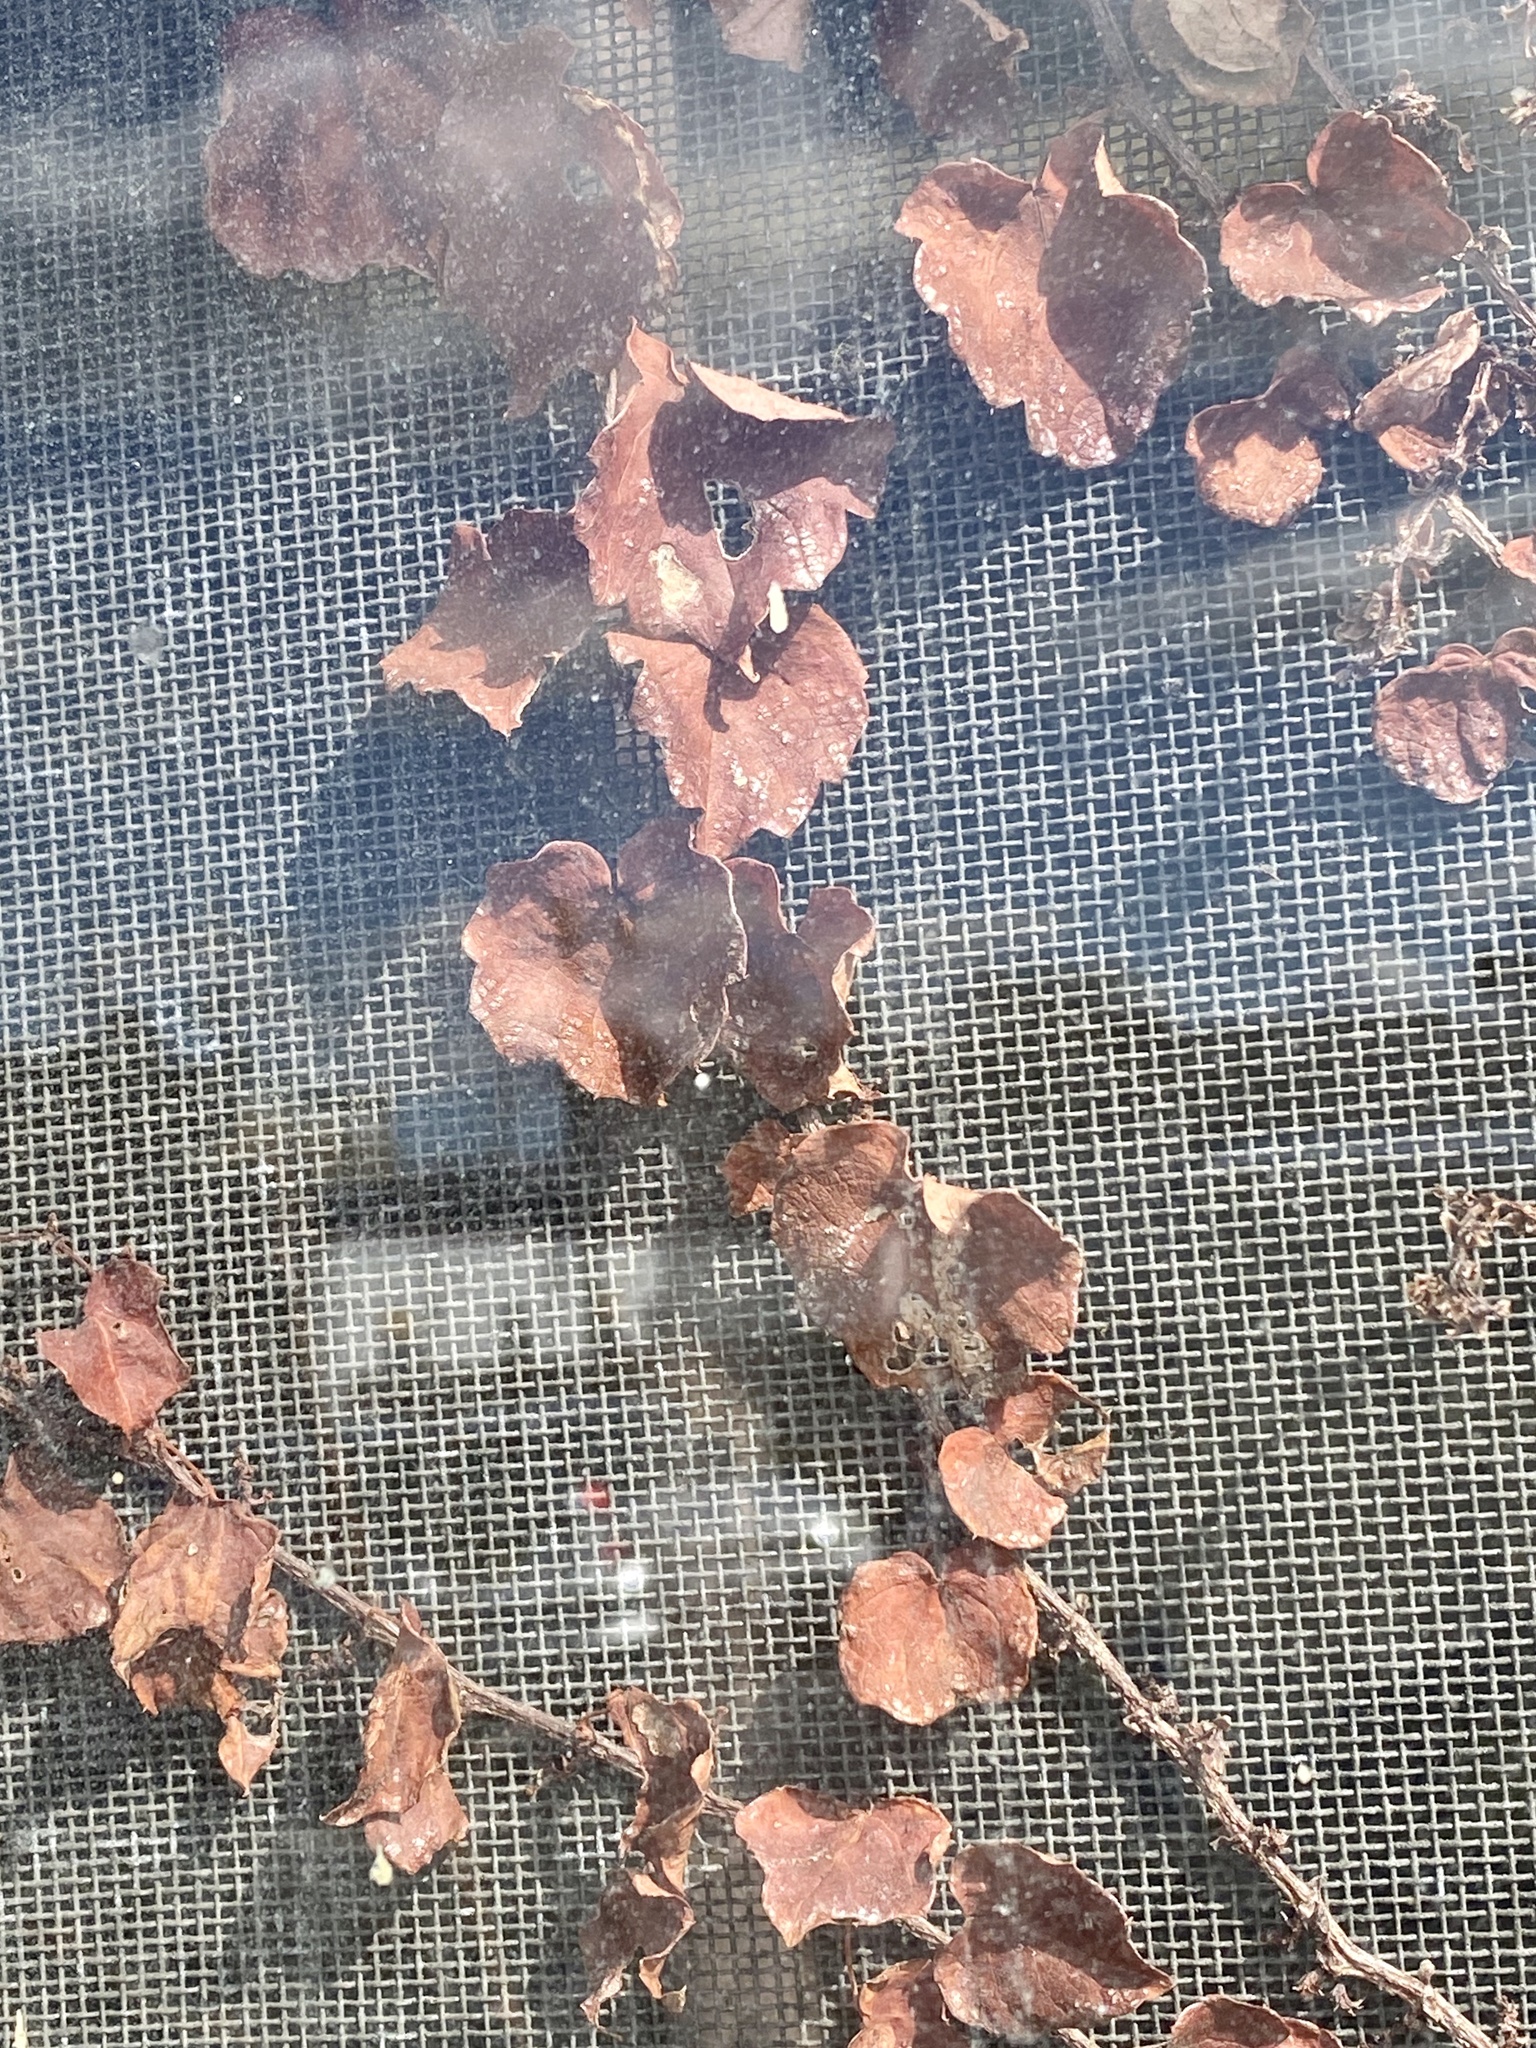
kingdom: Plantae
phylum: Tracheophyta
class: Magnoliopsida
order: Vitales
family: Vitaceae
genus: Parthenocissus
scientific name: Parthenocissus tricuspidata
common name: Boston ivy
